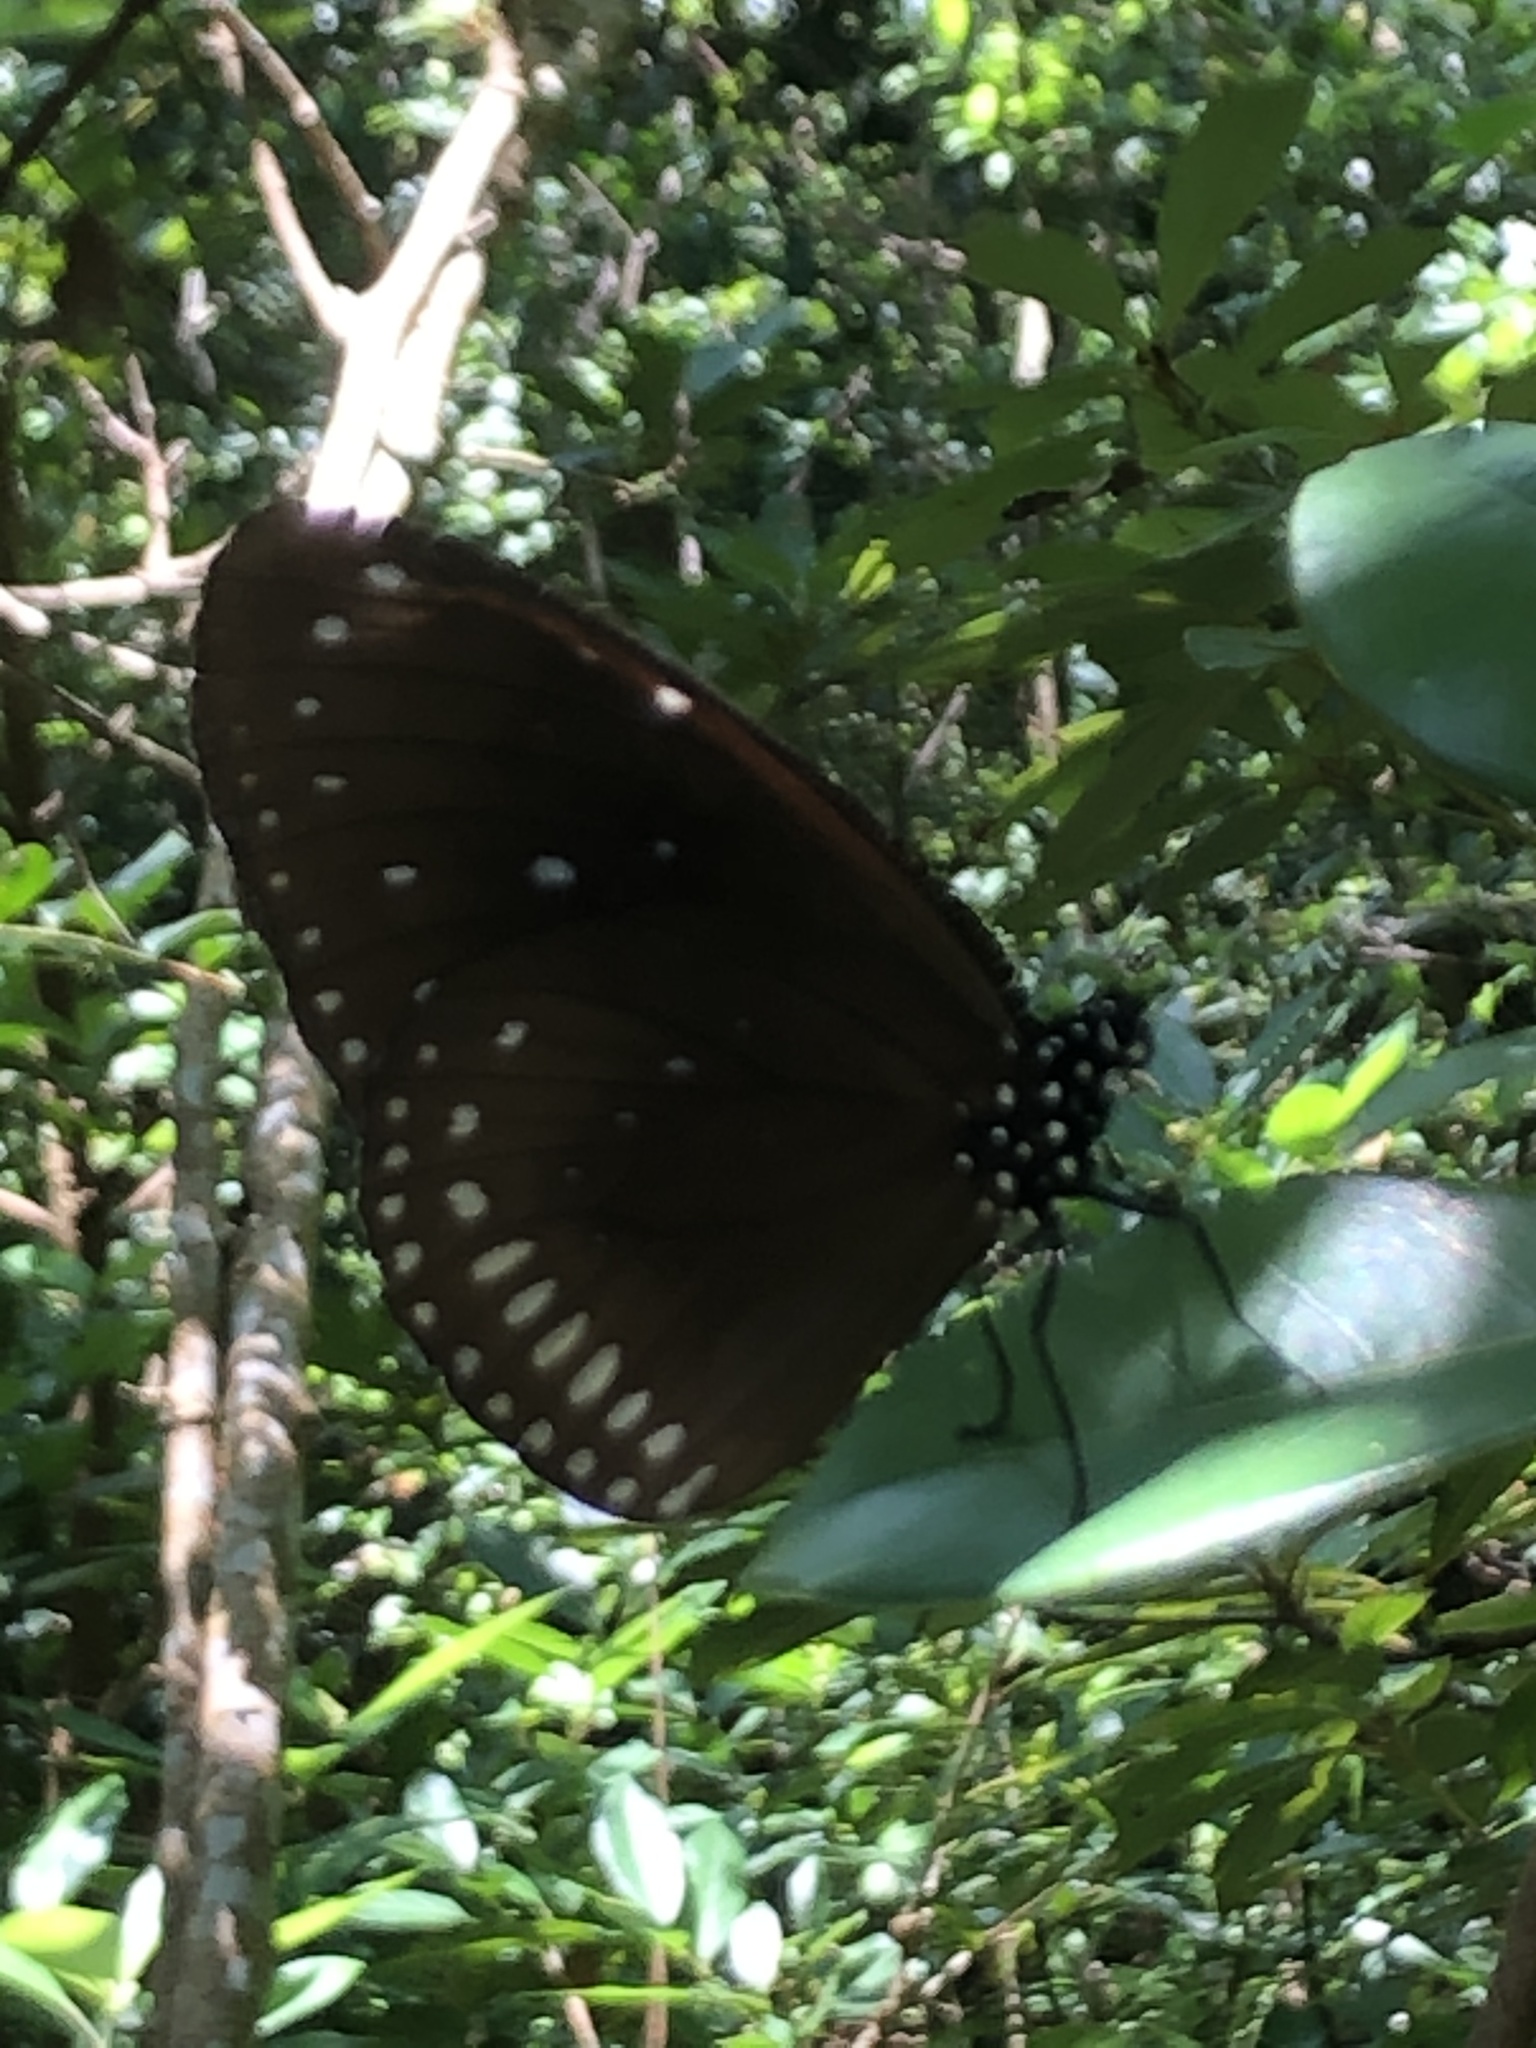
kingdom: Animalia
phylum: Arthropoda
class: Insecta
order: Lepidoptera
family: Nymphalidae
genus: Euploea
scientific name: Euploea midamus
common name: Blue-spotted crow butterfly
